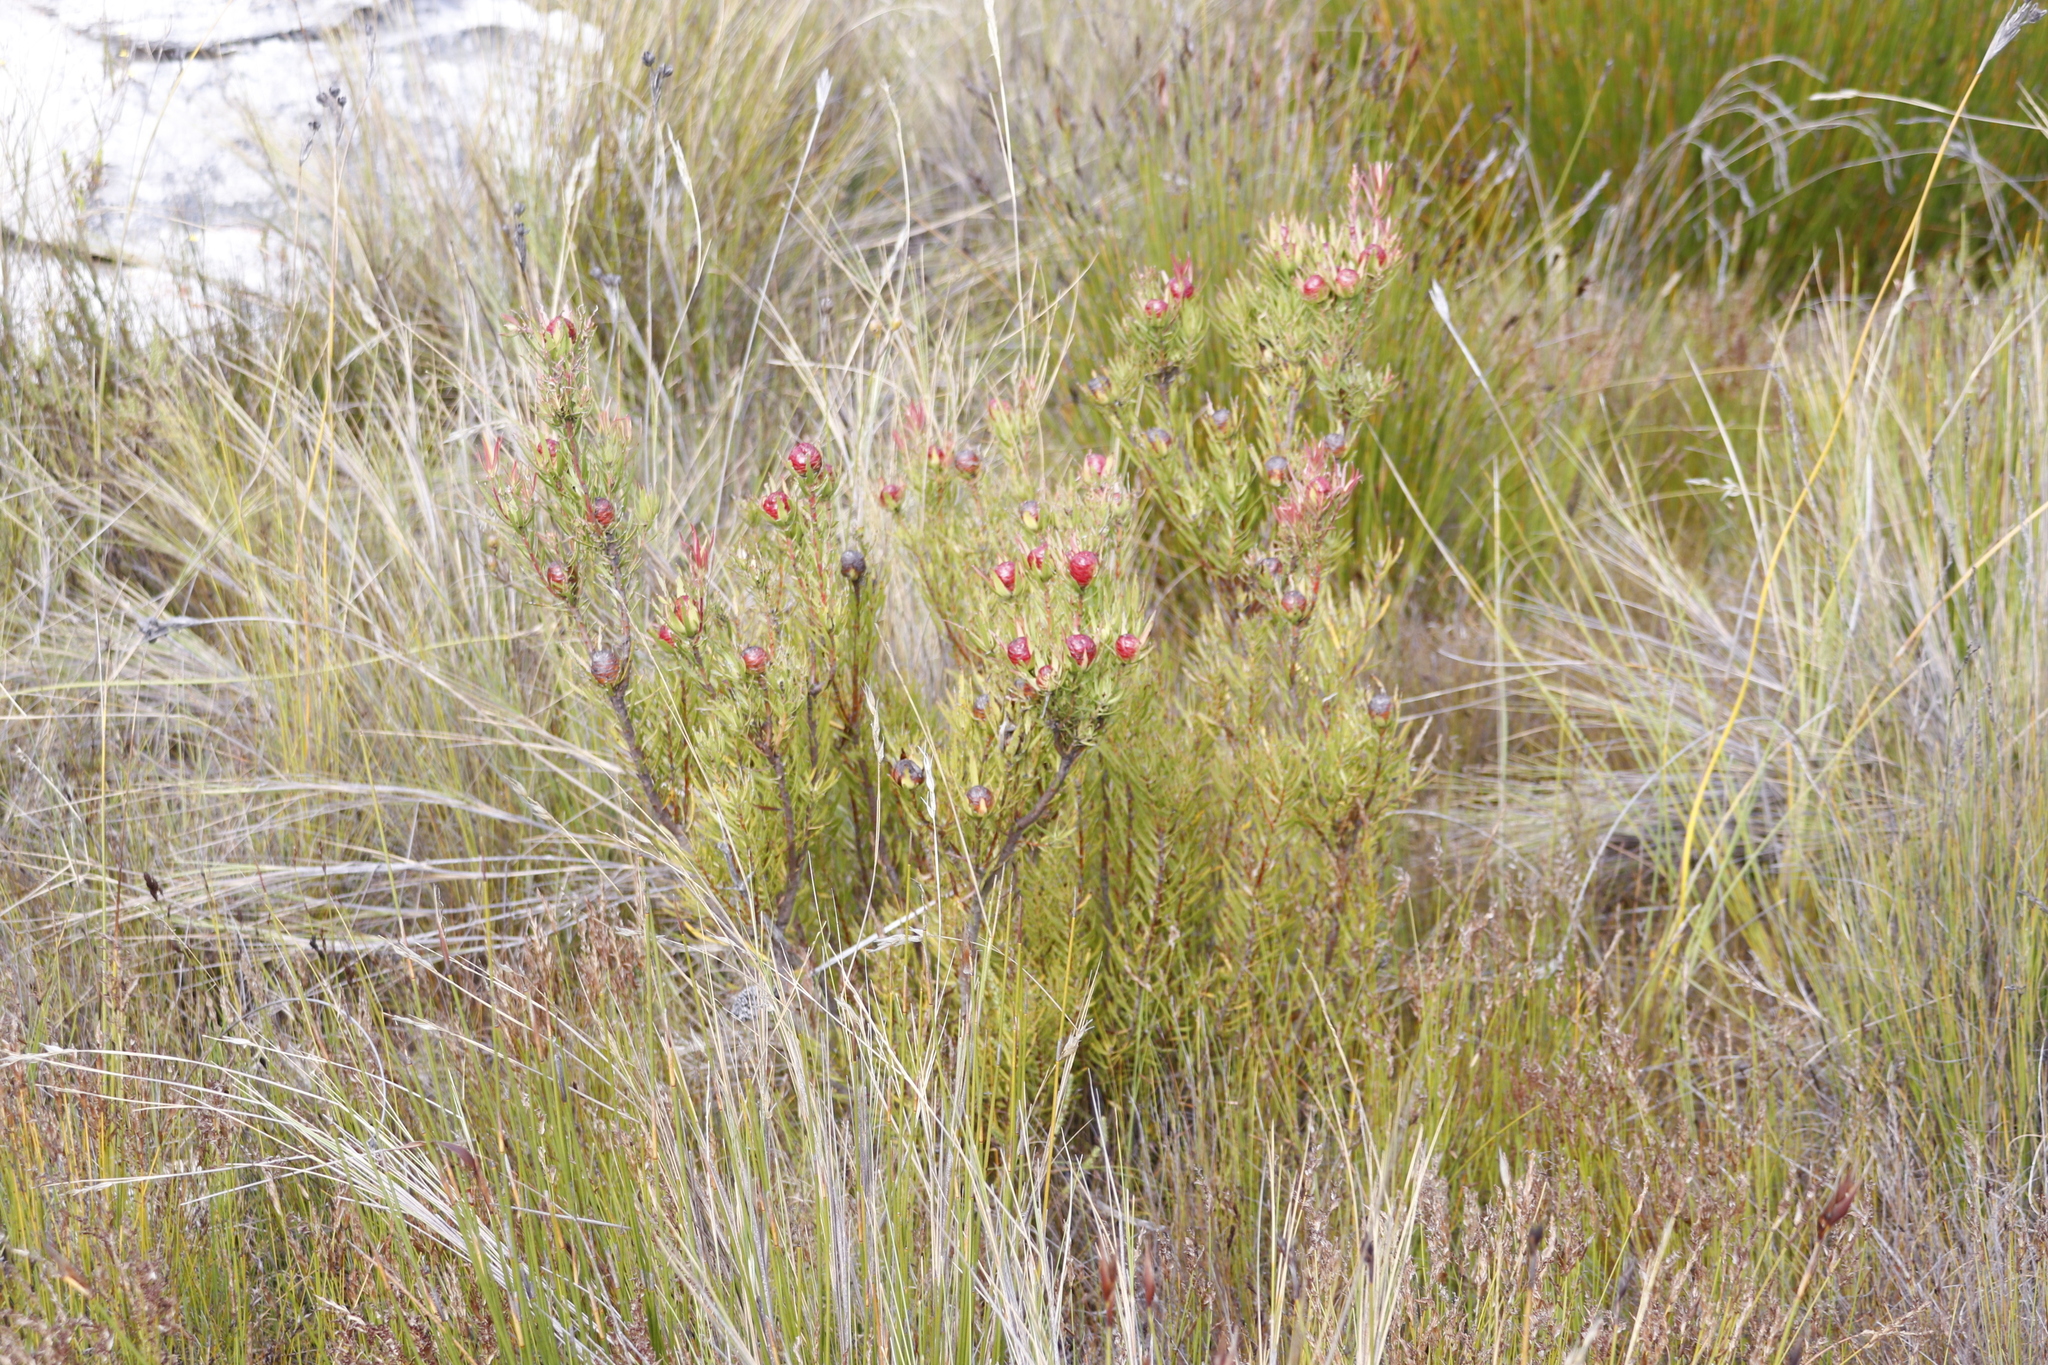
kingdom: Plantae
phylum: Tracheophyta
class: Magnoliopsida
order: Proteales
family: Proteaceae
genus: Leucadendron
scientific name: Leucadendron spissifolium
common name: Spear-leaf conebush
